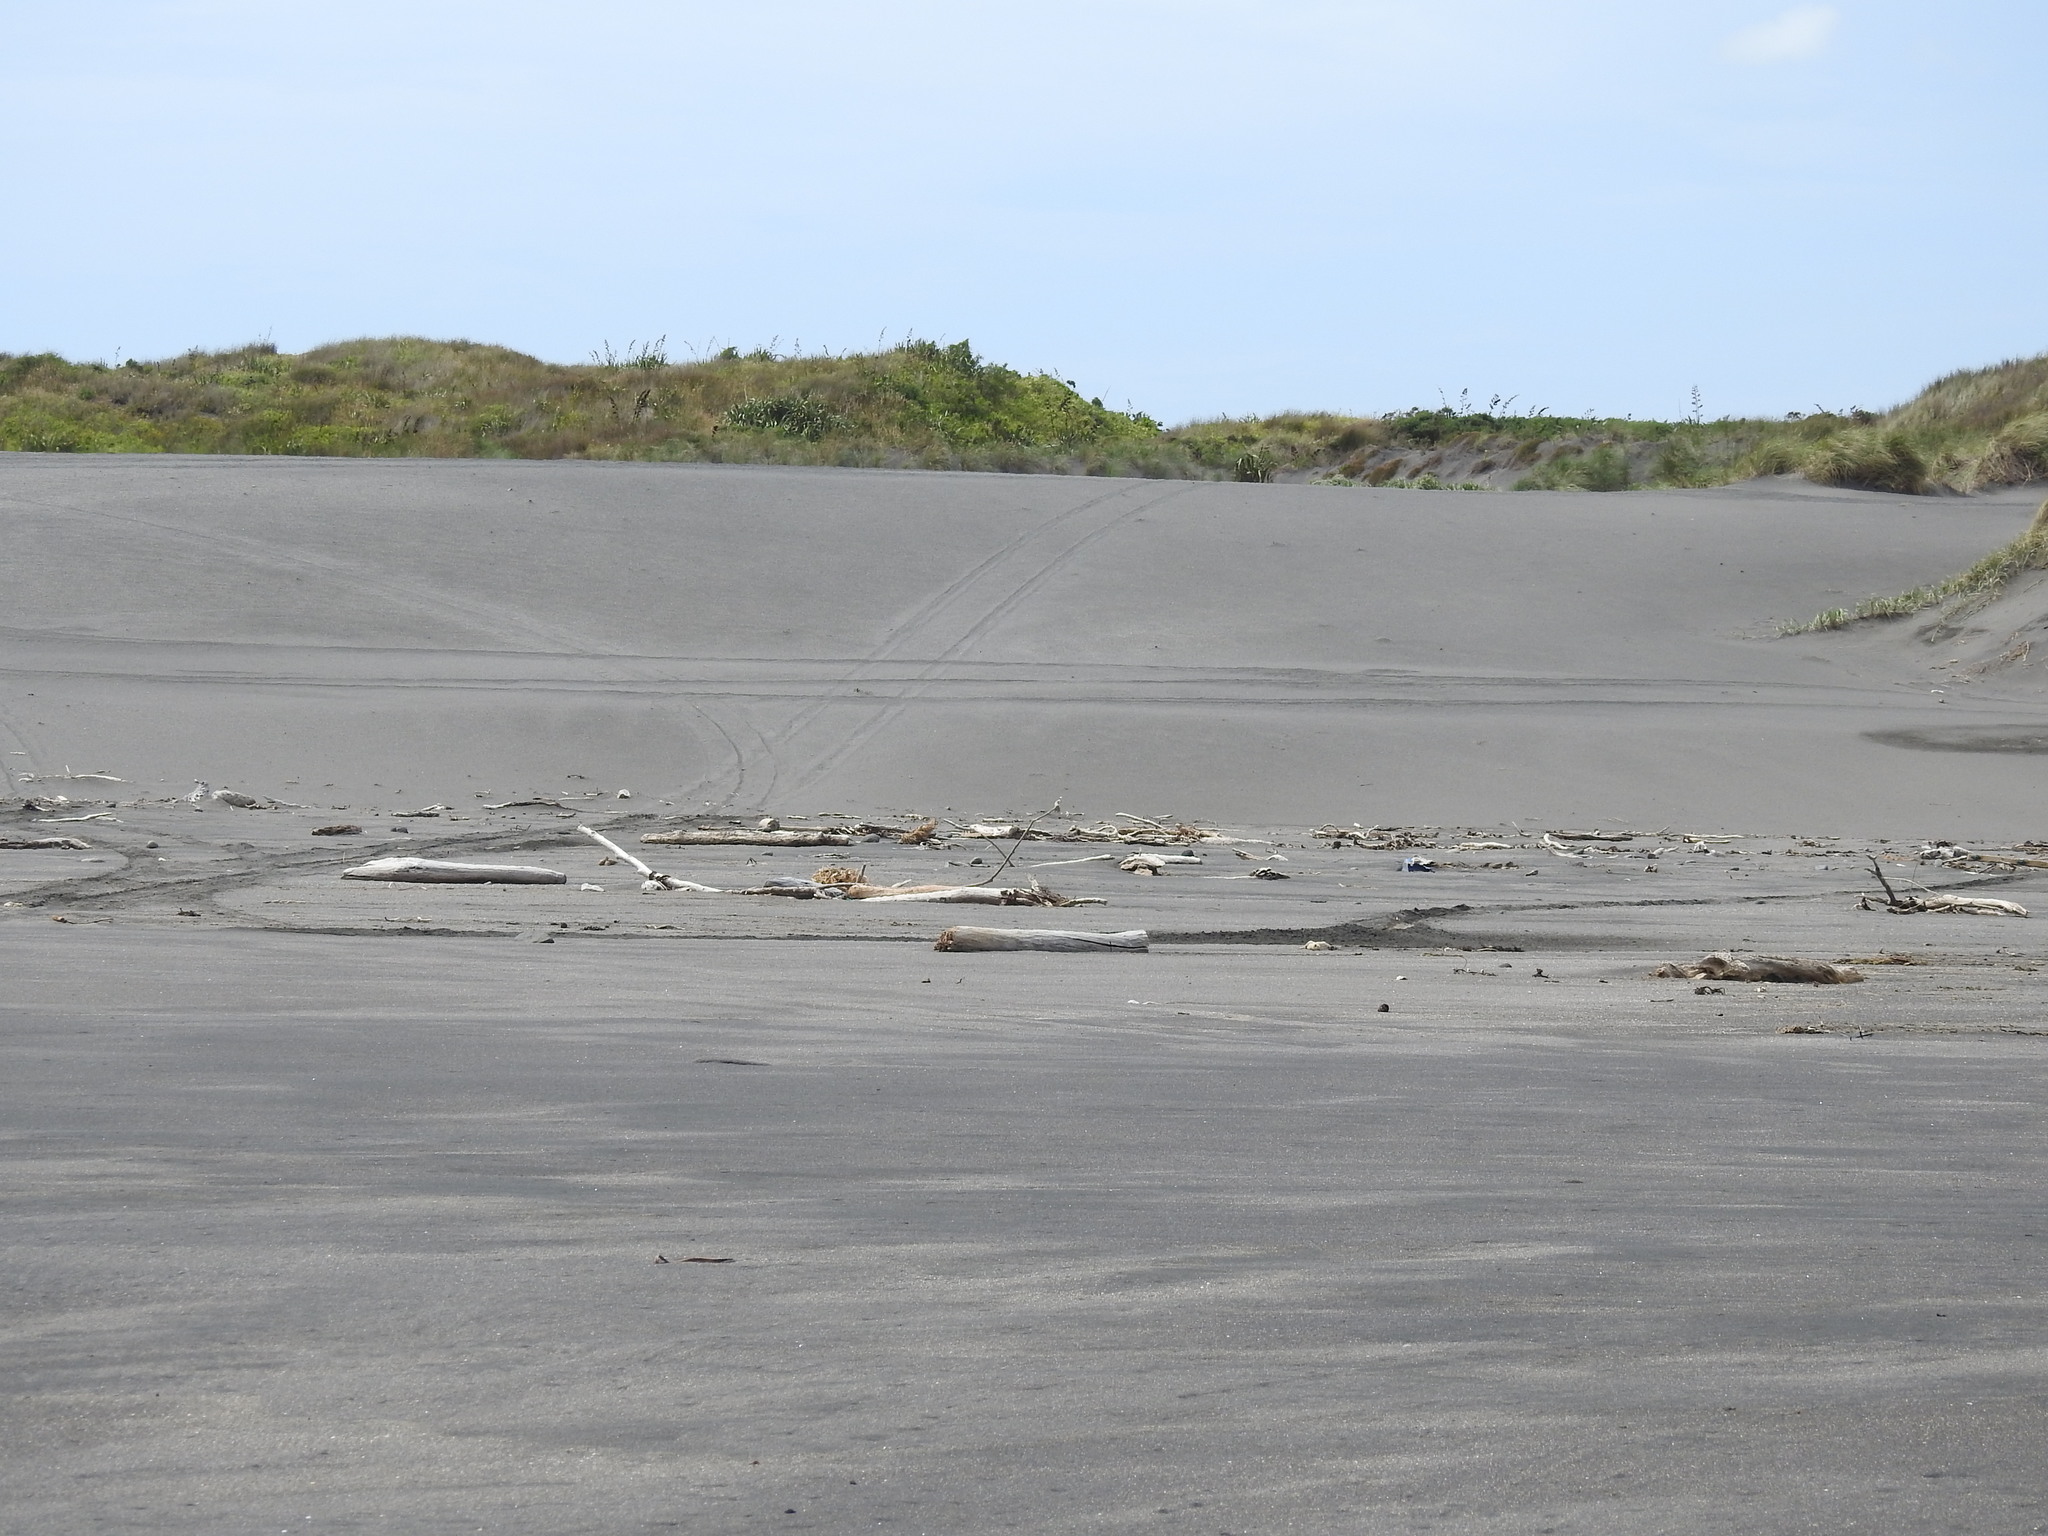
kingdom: Animalia
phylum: Chordata
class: Aves
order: Charadriiformes
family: Charadriidae
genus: Anarhynchus
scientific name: Anarhynchus
